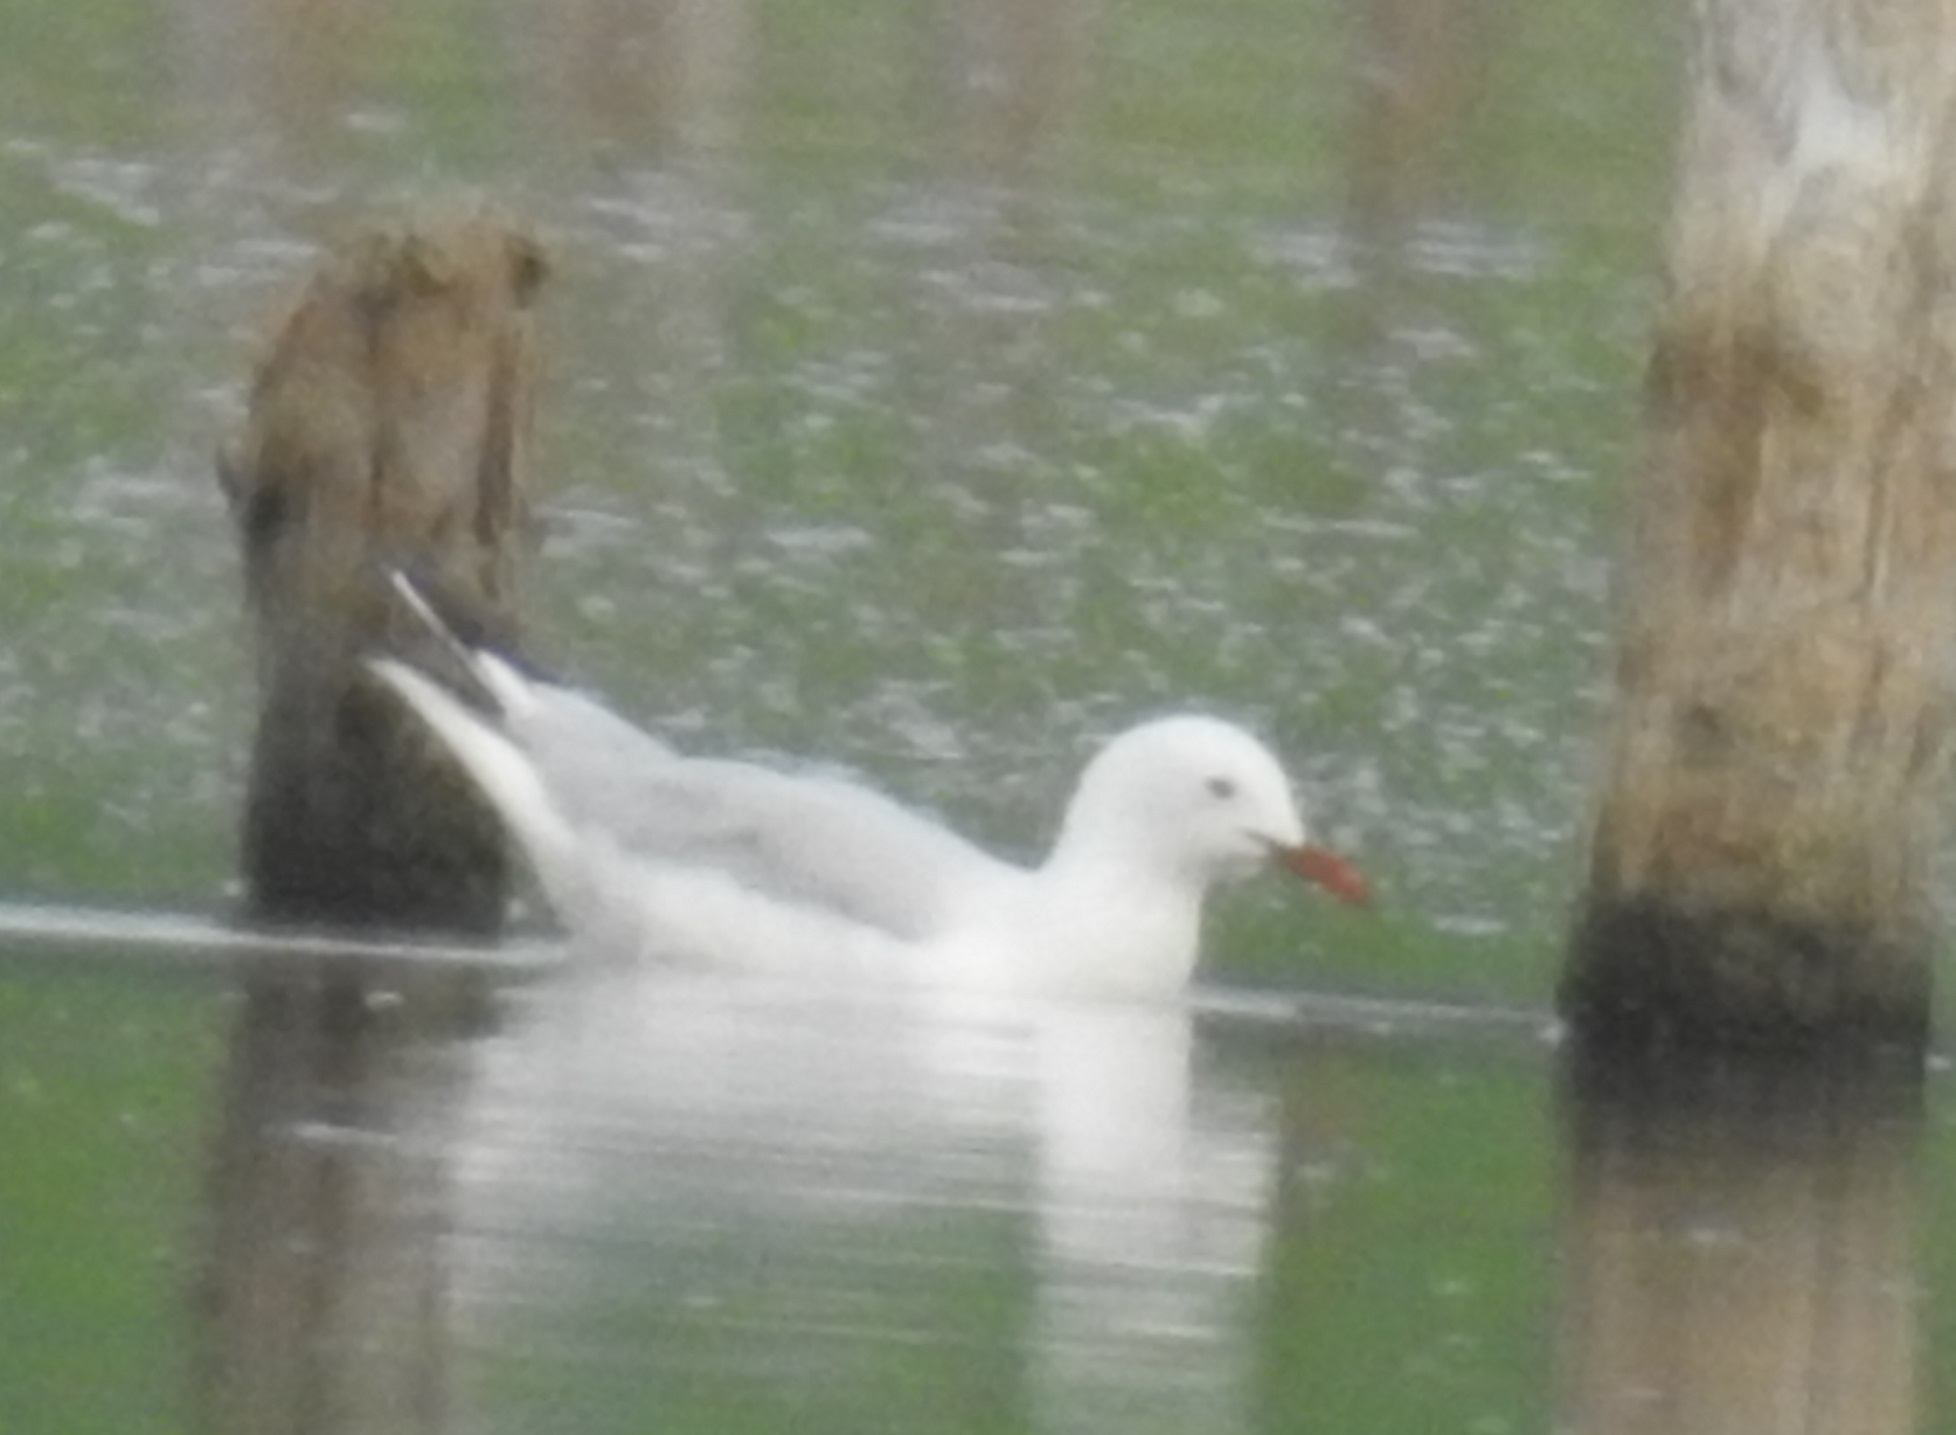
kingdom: Animalia
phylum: Chordata
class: Aves
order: Charadriiformes
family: Laridae
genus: Chroicocephalus
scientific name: Chroicocephalus genei
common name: Slender-billed gull
